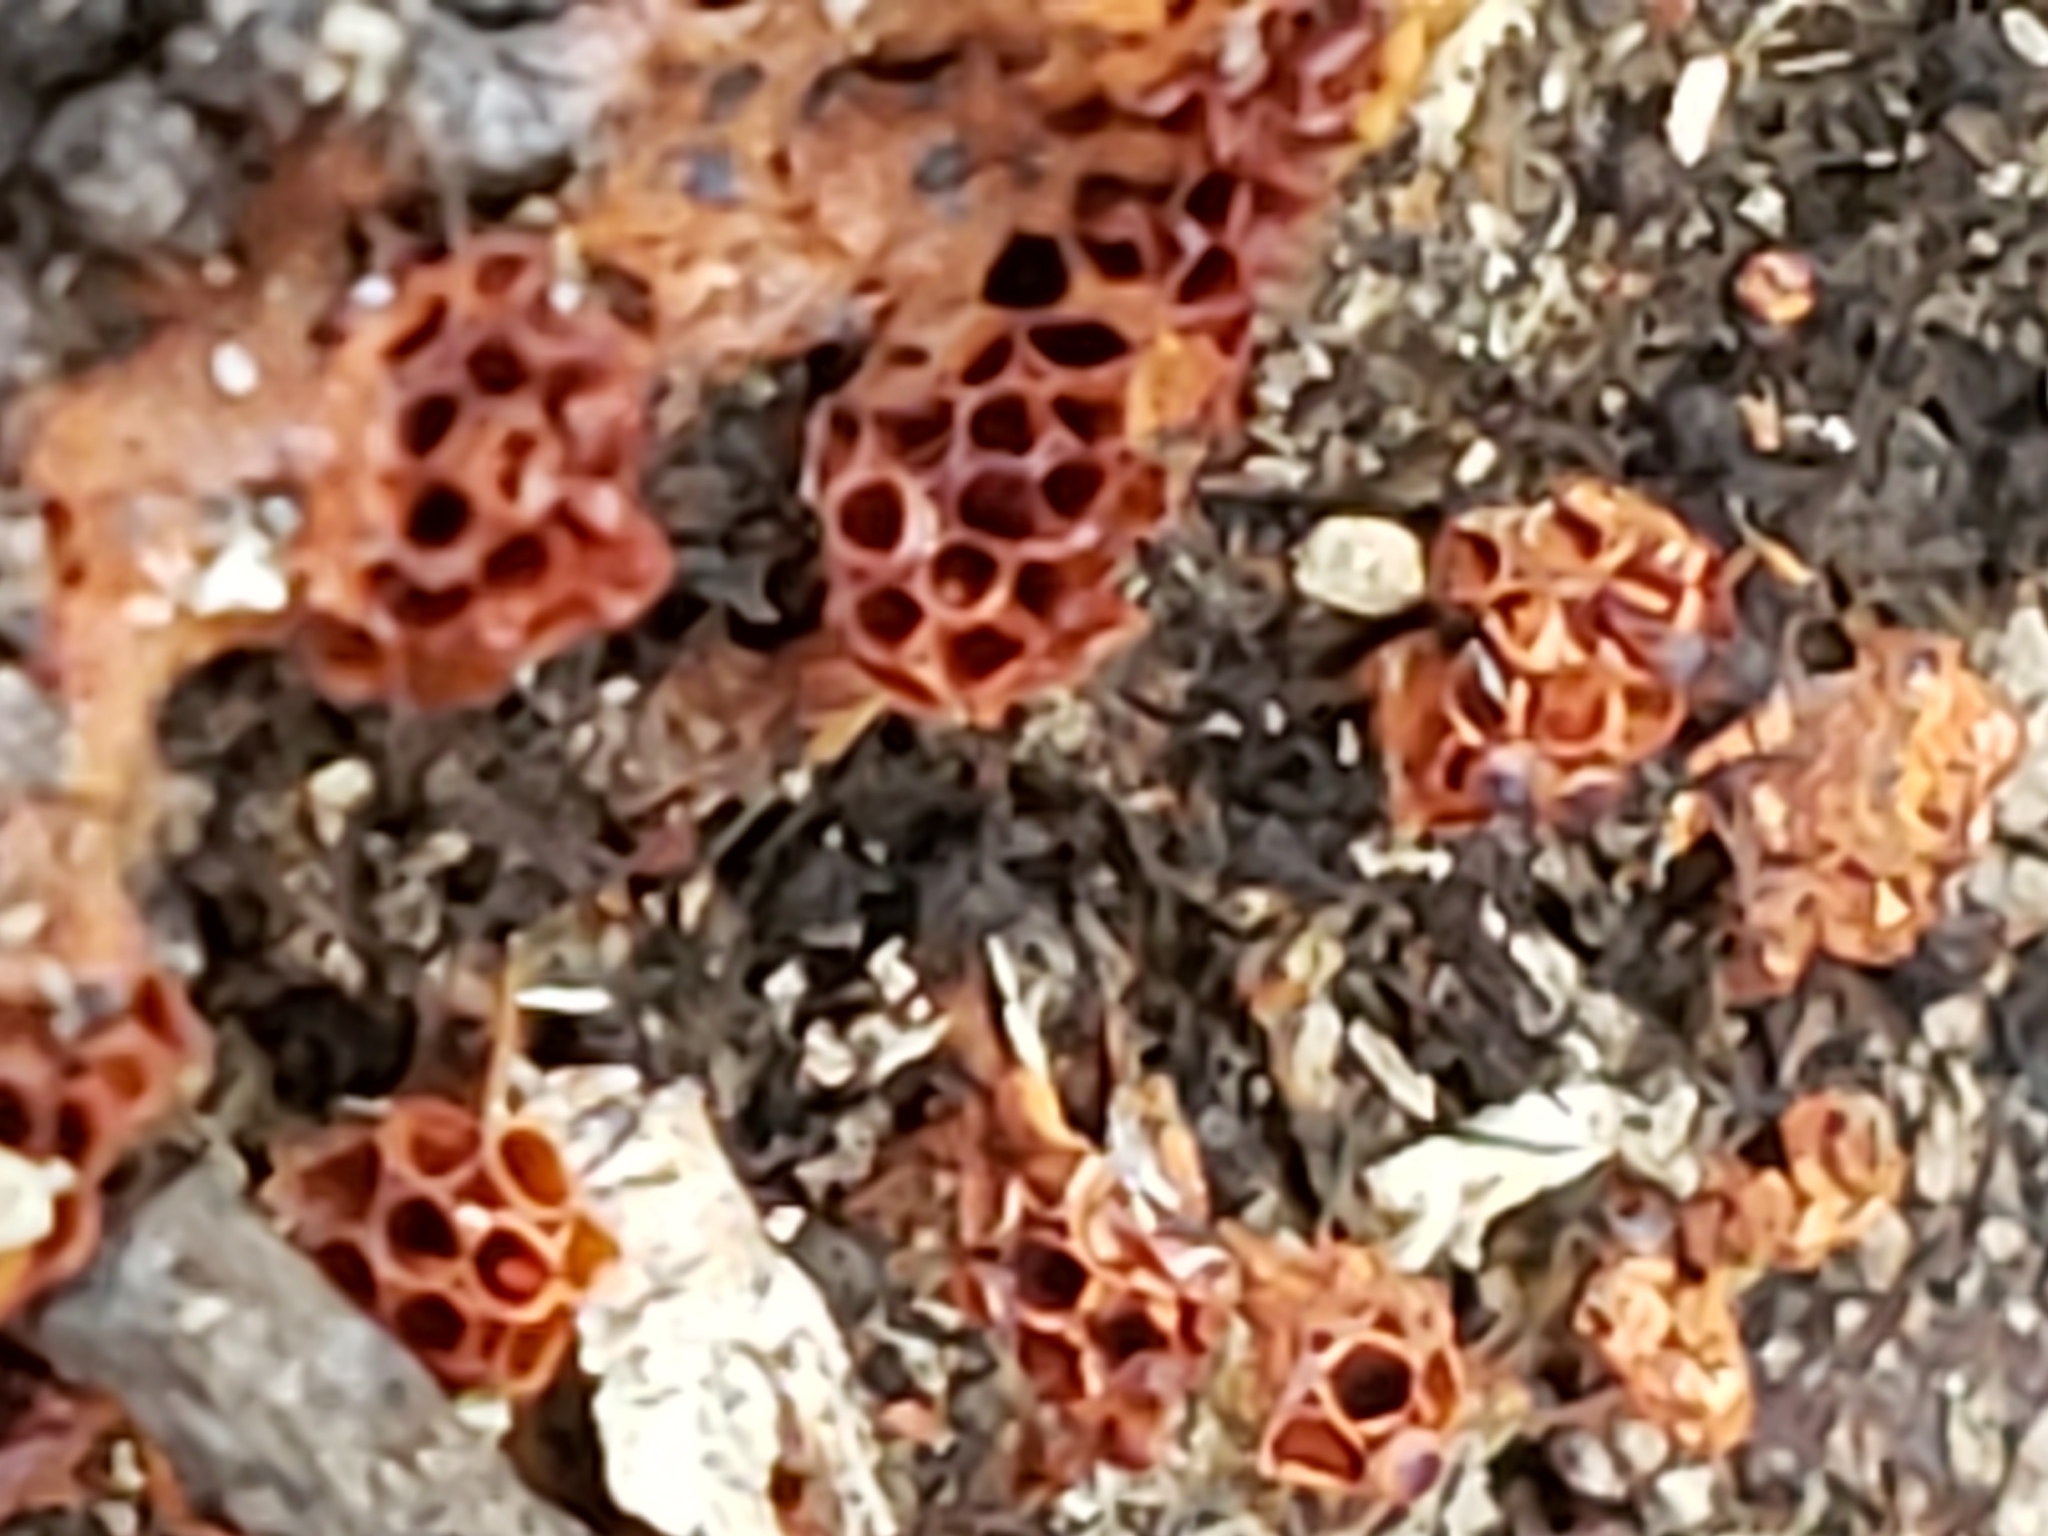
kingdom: Protozoa
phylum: Mycetozoa
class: Myxomycetes
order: Trichiales
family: Trichiaceae
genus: Metatrichia
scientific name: Metatrichia vesparia
